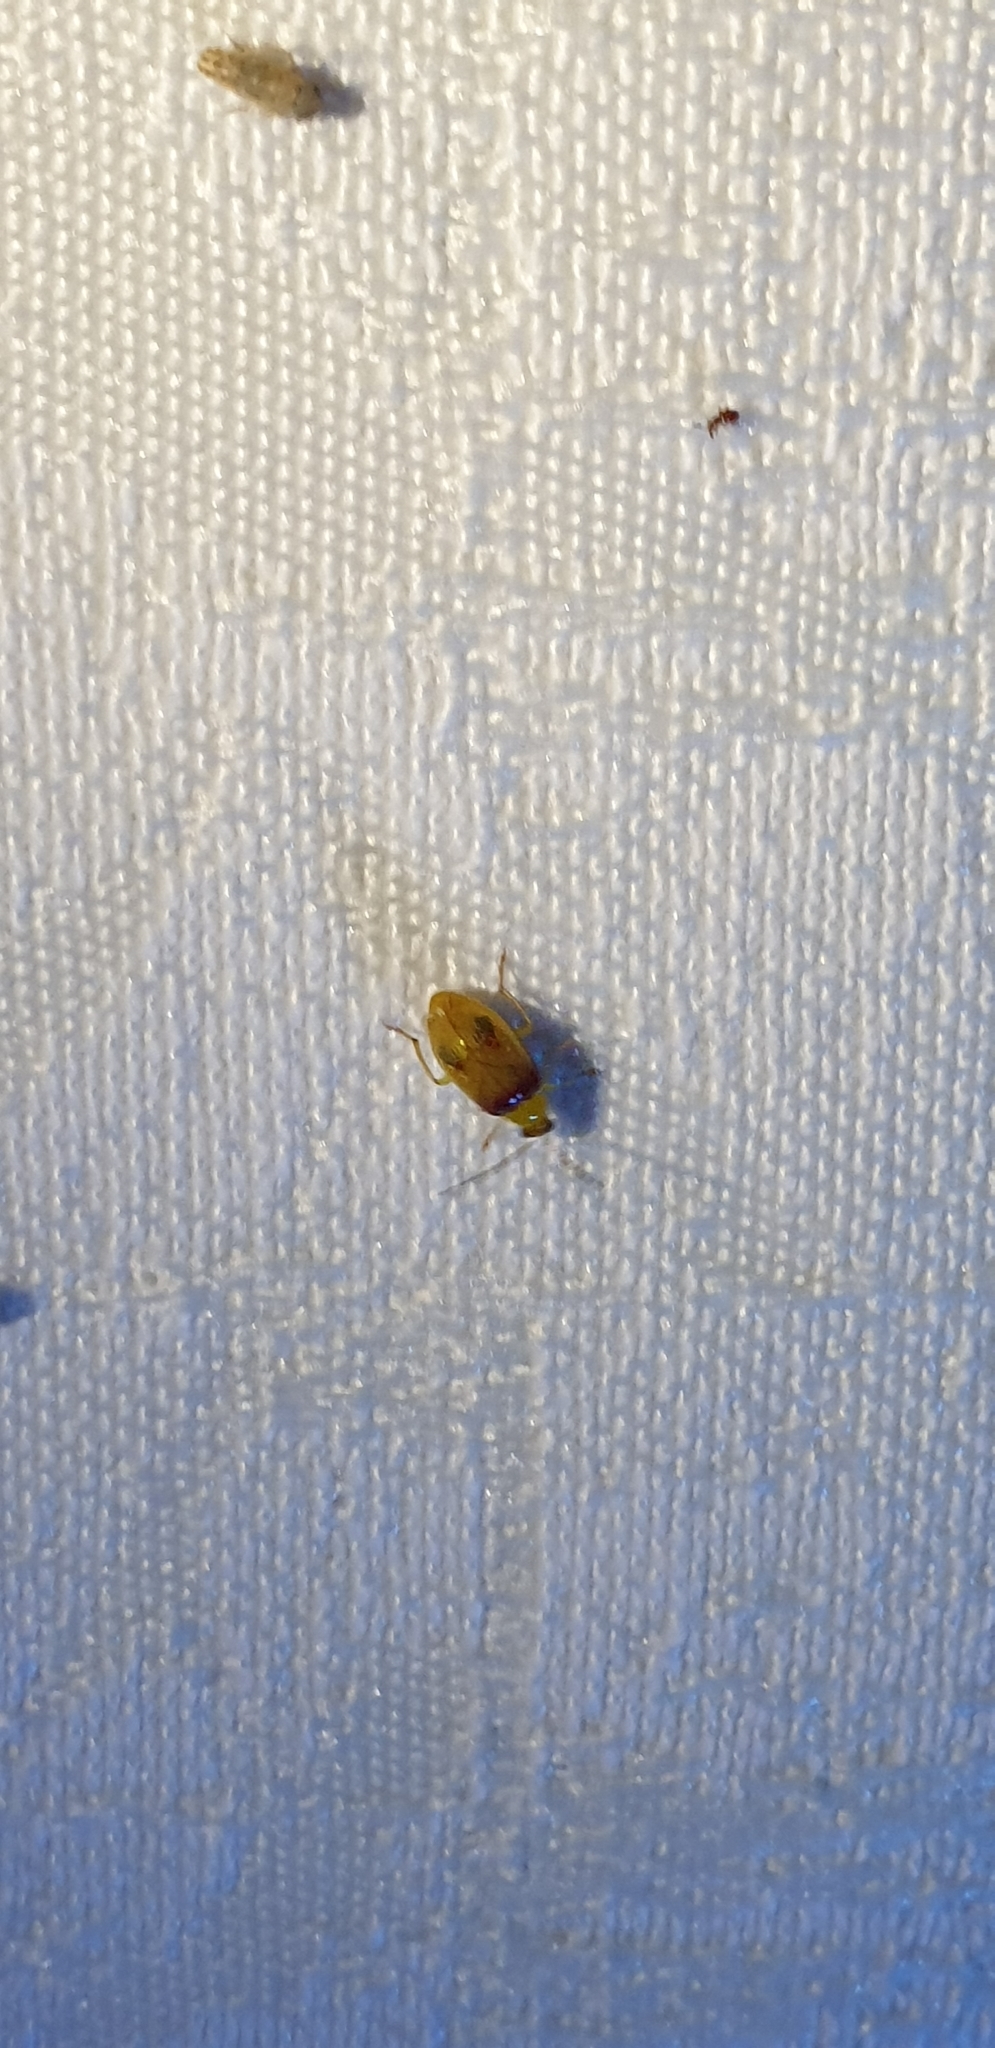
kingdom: Animalia
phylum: Arthropoda
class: Insecta
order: Coleoptera
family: Chrysomelidae
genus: Monolepta
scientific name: Monolepta
